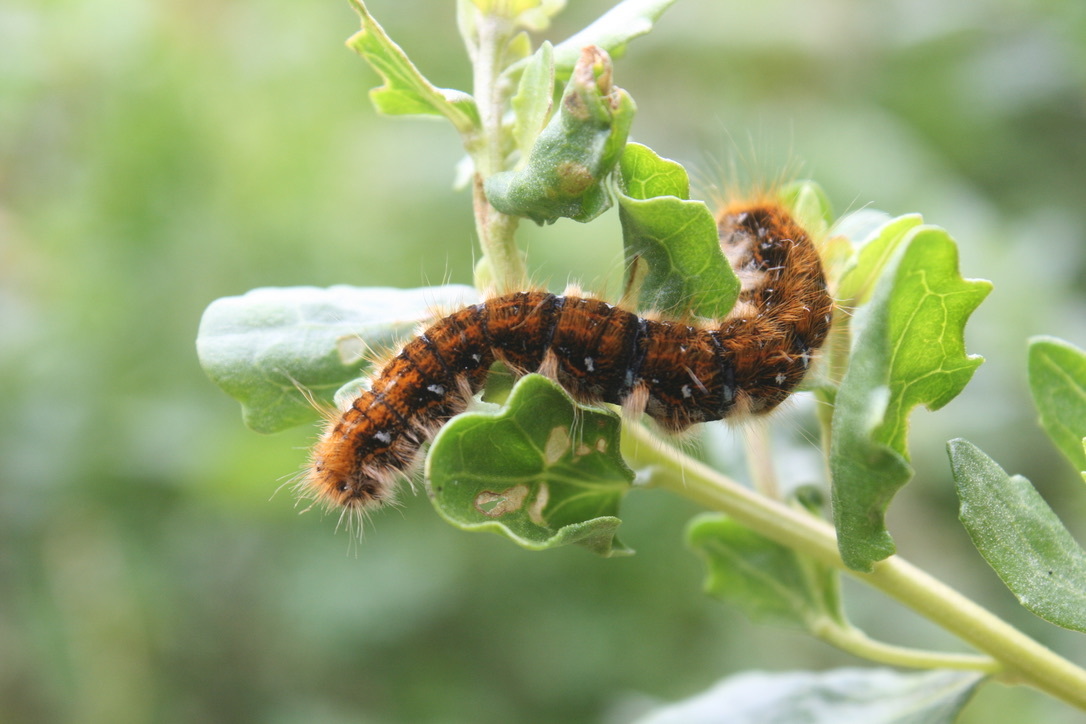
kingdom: Animalia
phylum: Arthropoda
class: Insecta
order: Lepidoptera
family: Lasiocampidae
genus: Malacosoma
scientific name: Malacosoma californica
